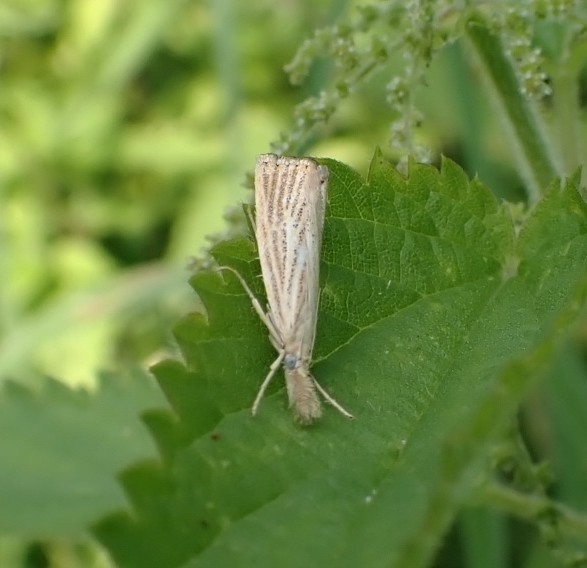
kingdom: Animalia
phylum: Arthropoda
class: Insecta
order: Lepidoptera
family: Crambidae
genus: Agriphila
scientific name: Agriphila straminella
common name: Straw grass-veneer
